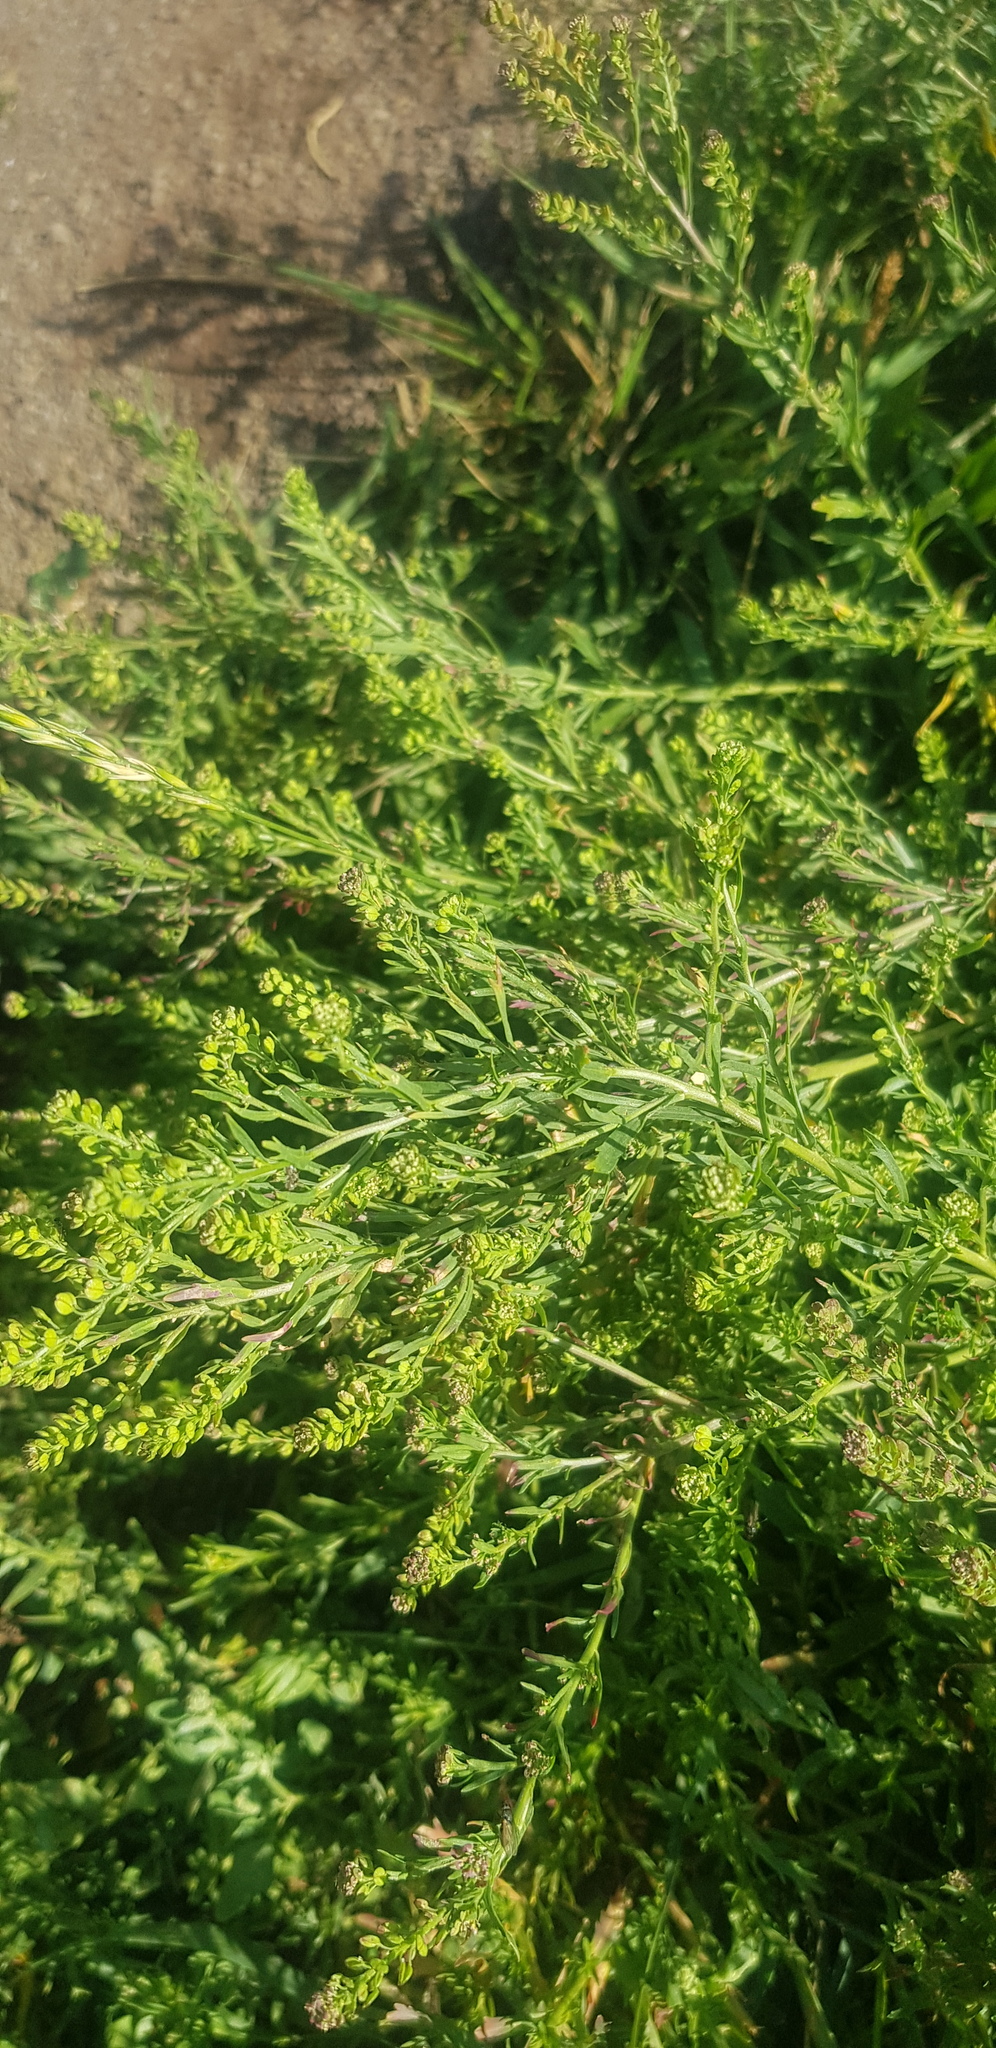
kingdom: Plantae
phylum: Tracheophyta
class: Magnoliopsida
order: Brassicales
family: Brassicaceae
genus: Lepidium
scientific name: Lepidium densiflorum
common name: Miner's pepperwort
